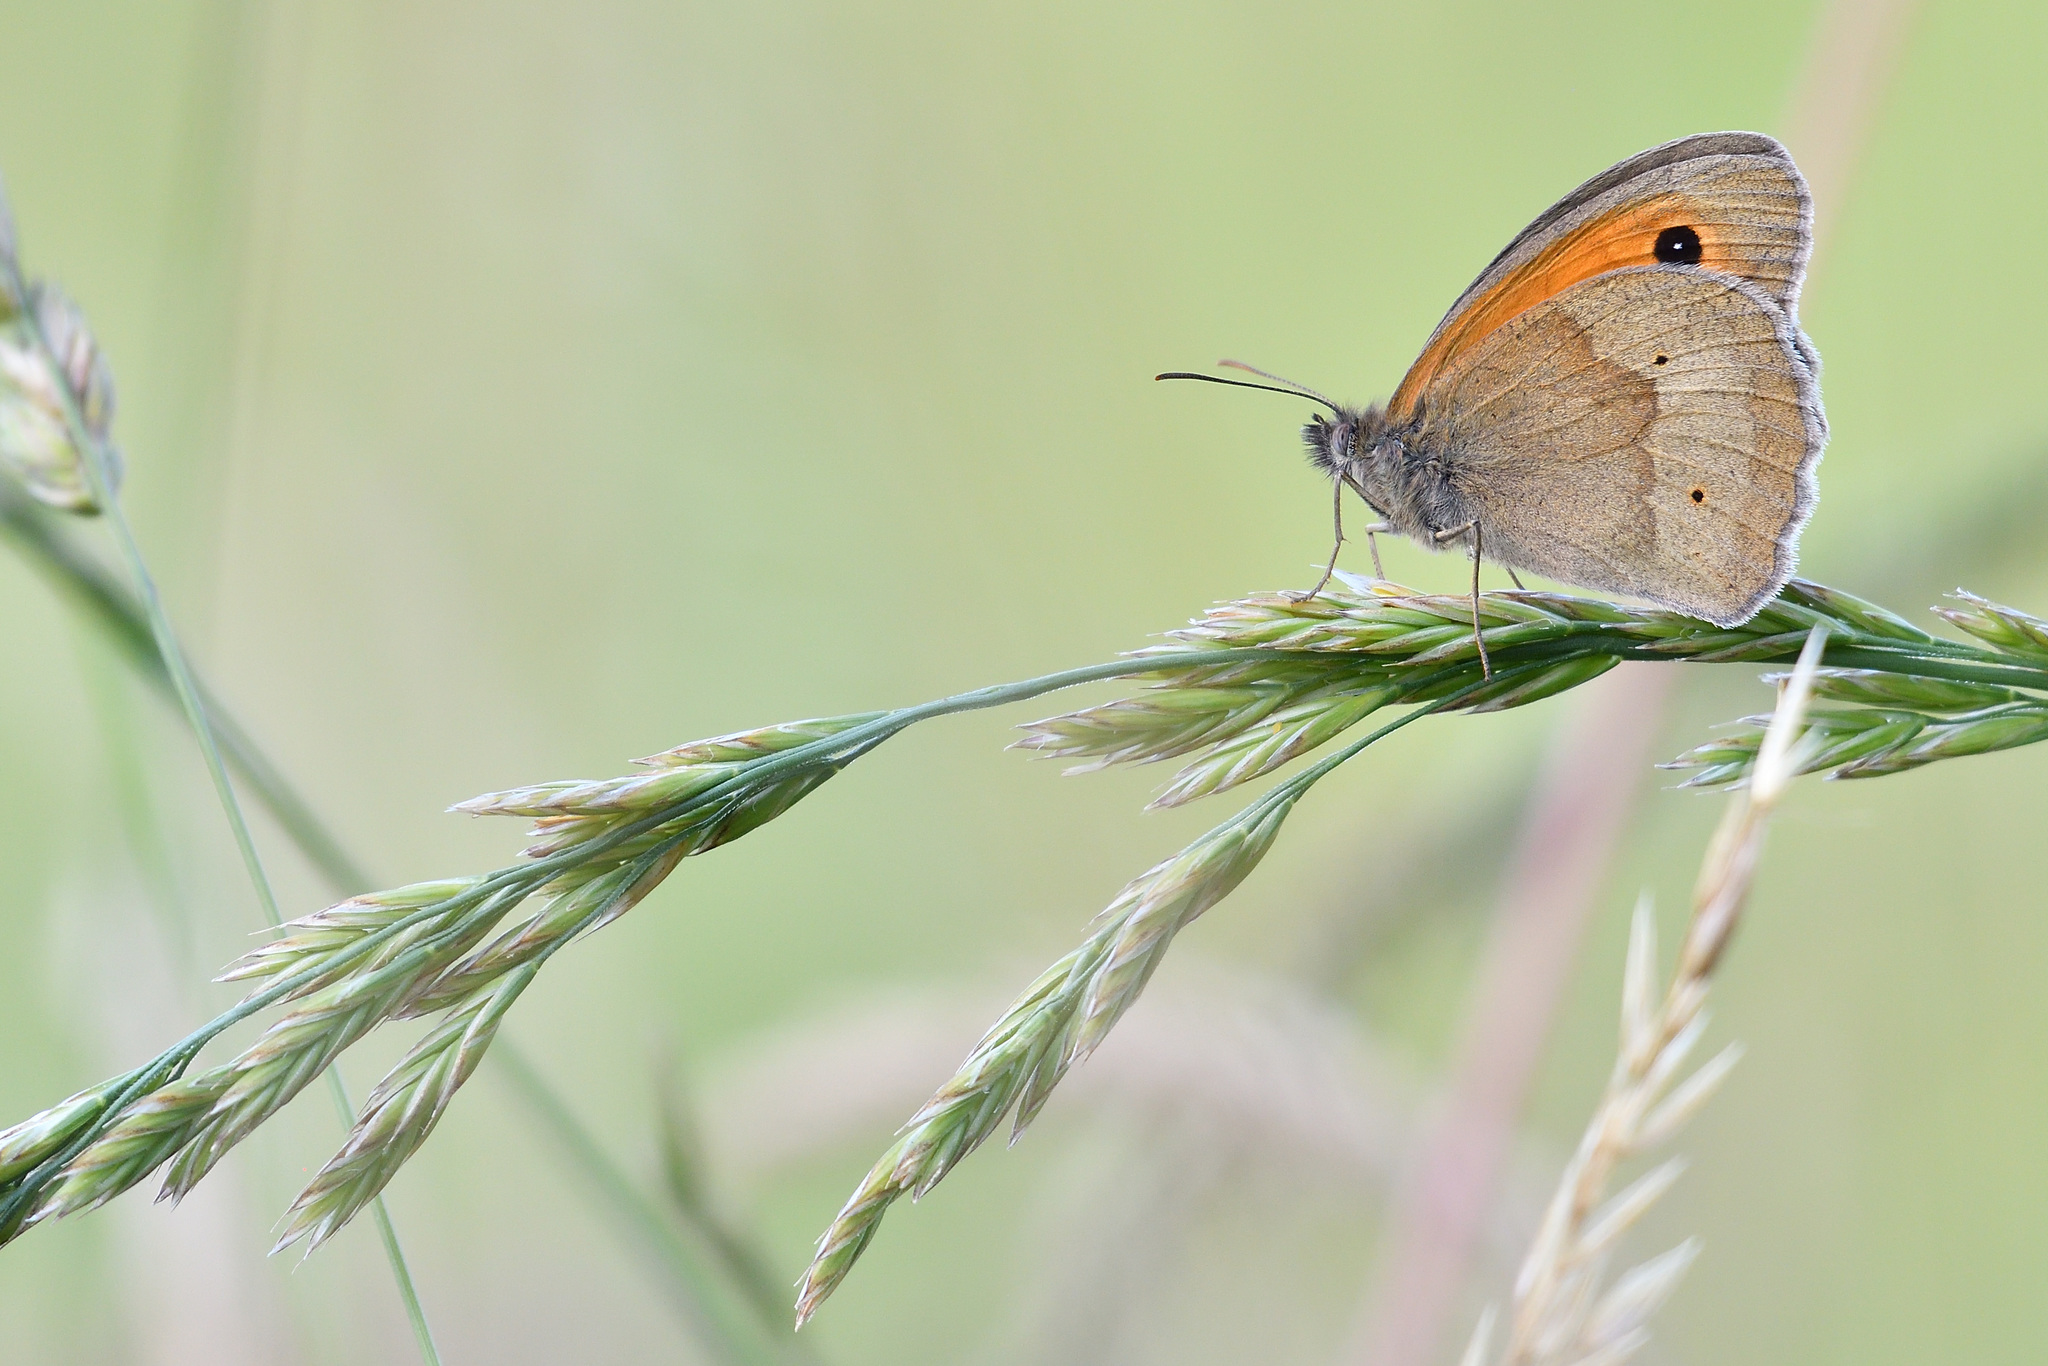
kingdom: Animalia
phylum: Arthropoda
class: Insecta
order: Lepidoptera
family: Nymphalidae
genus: Maniola
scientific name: Maniola jurtina
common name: Meadow brown
